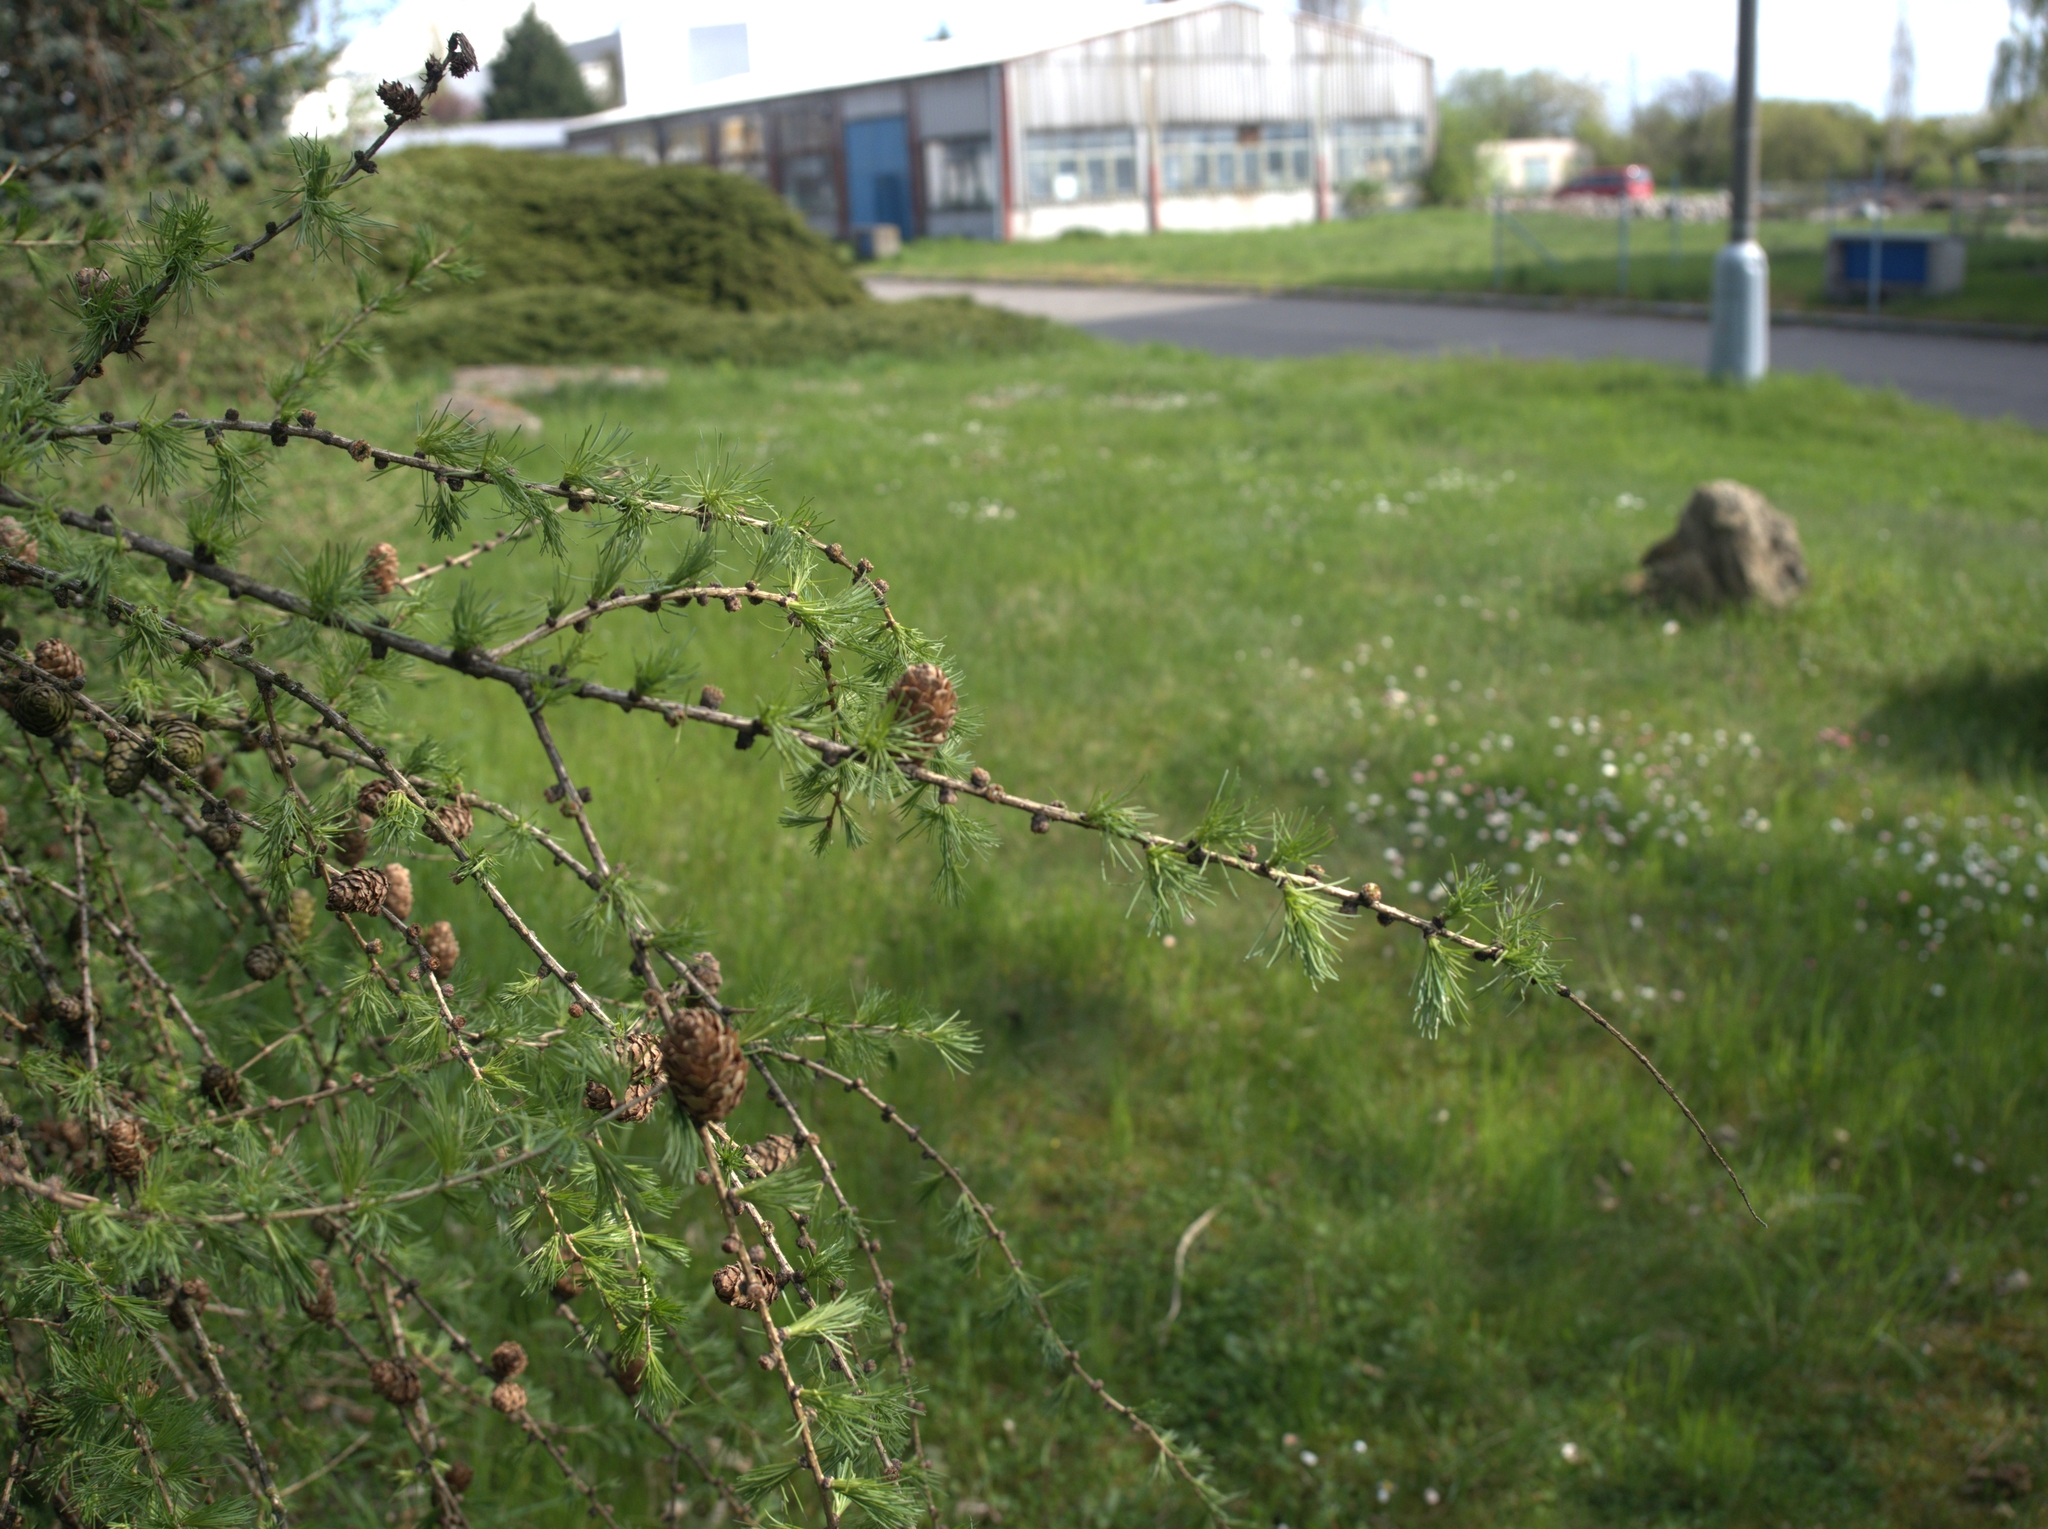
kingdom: Plantae
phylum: Tracheophyta
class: Pinopsida
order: Pinales
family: Pinaceae
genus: Larix
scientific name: Larix decidua
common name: European larch
